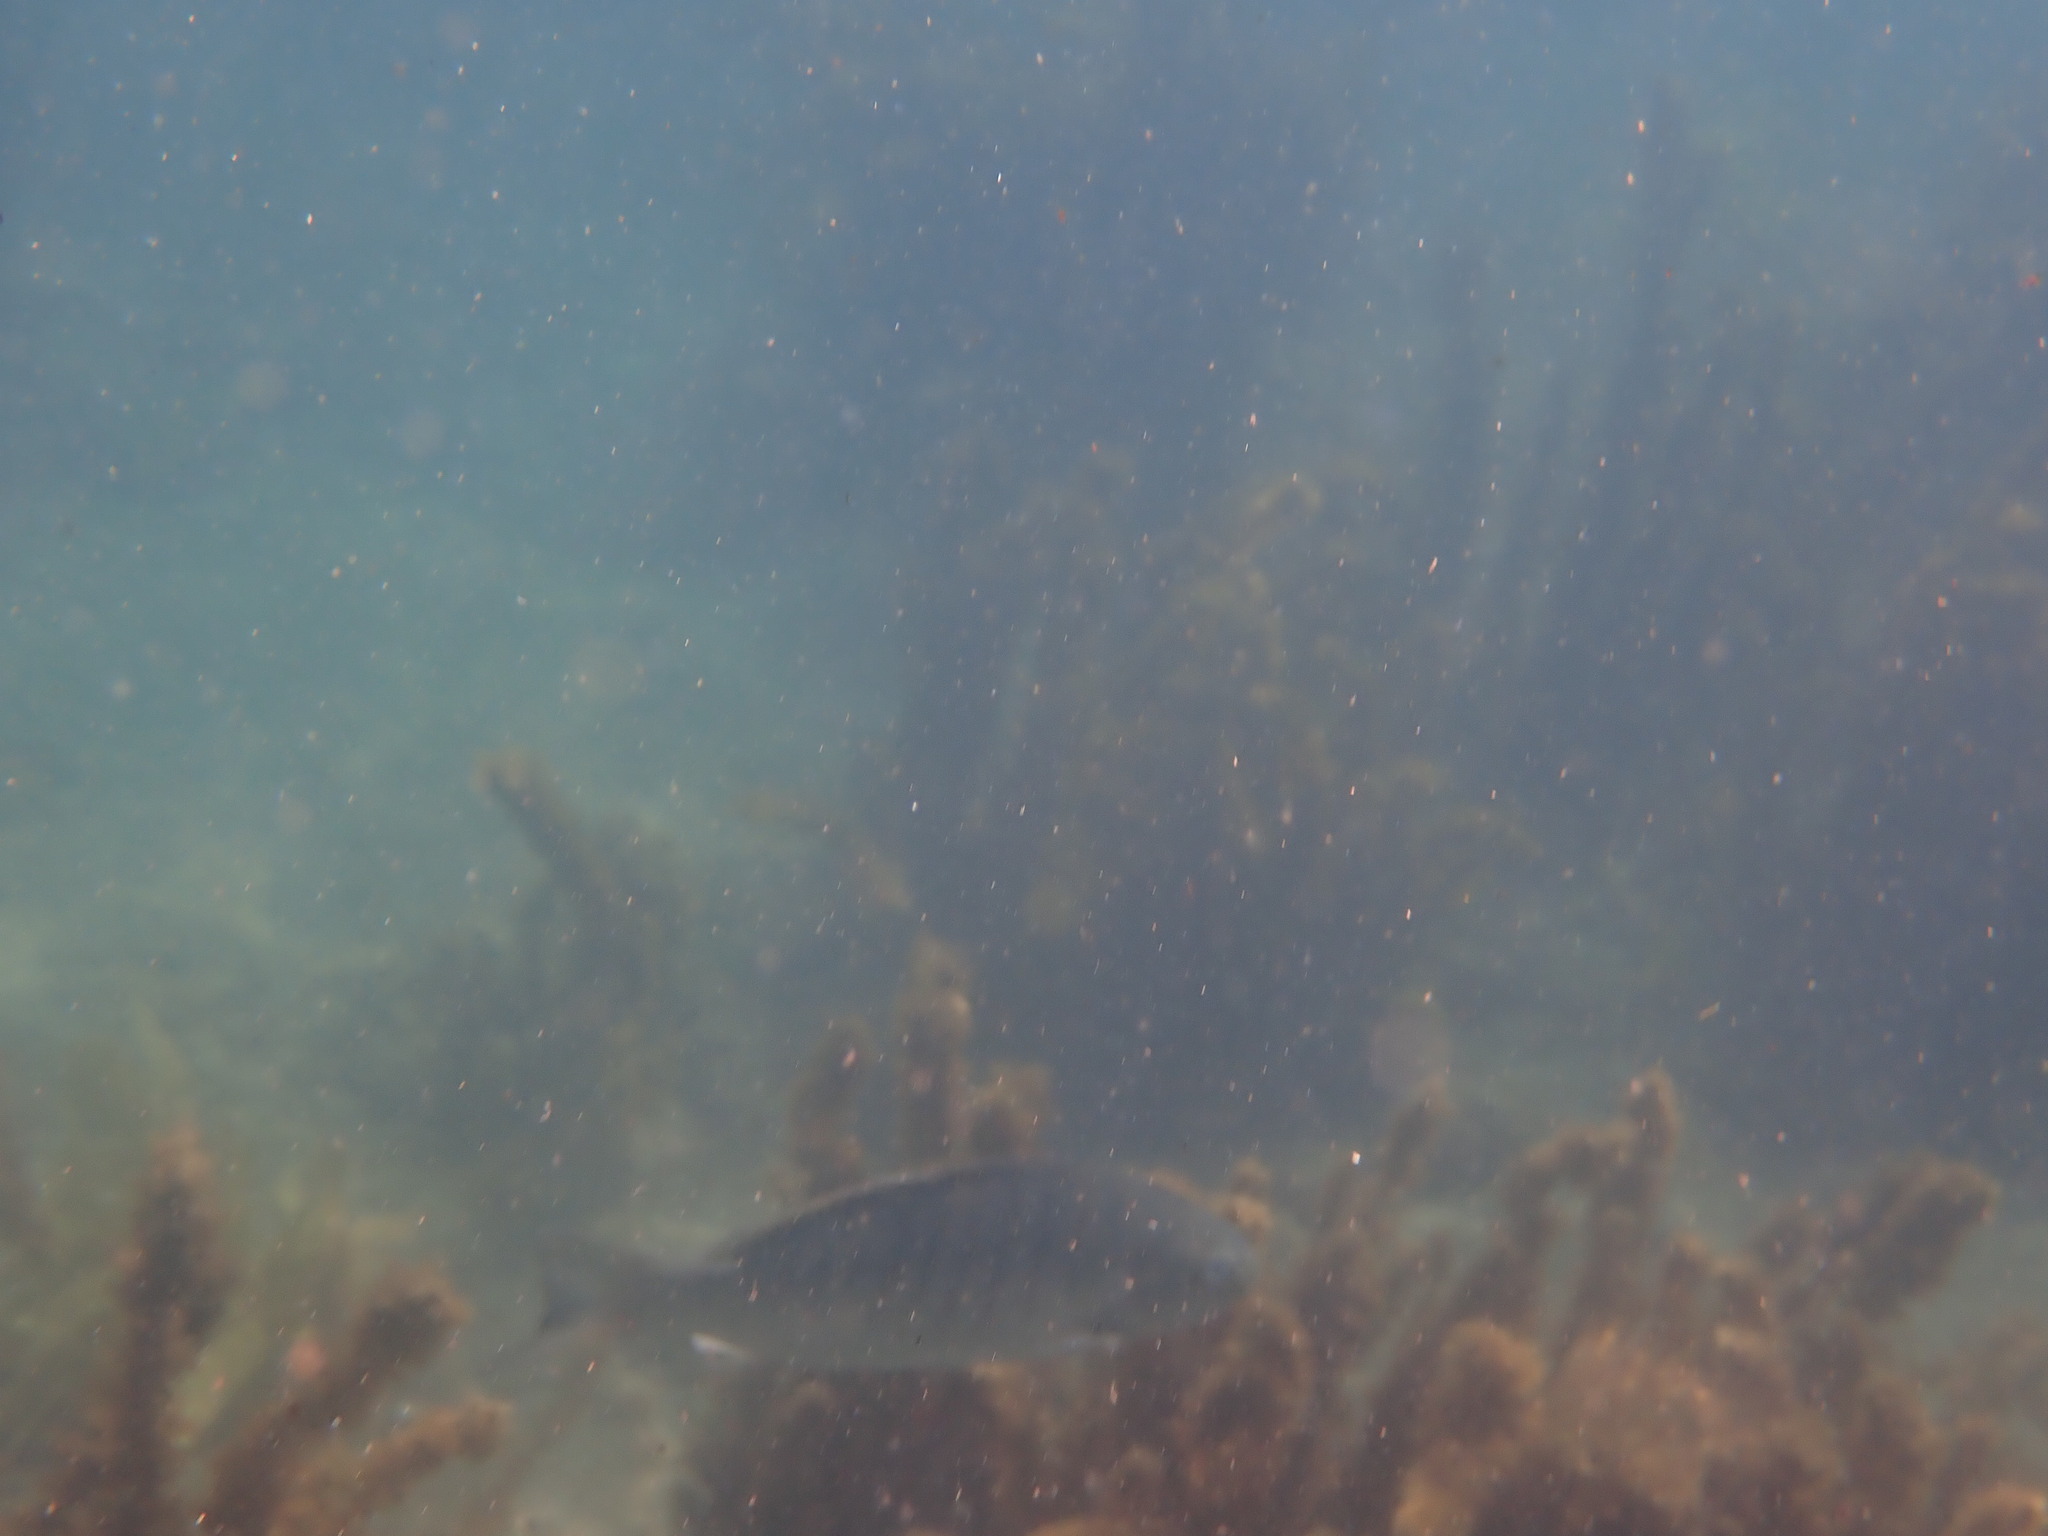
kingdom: Animalia
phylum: Chordata
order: Perciformes
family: Kyphosidae
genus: Girella
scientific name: Girella tricuspidata
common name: Parore
